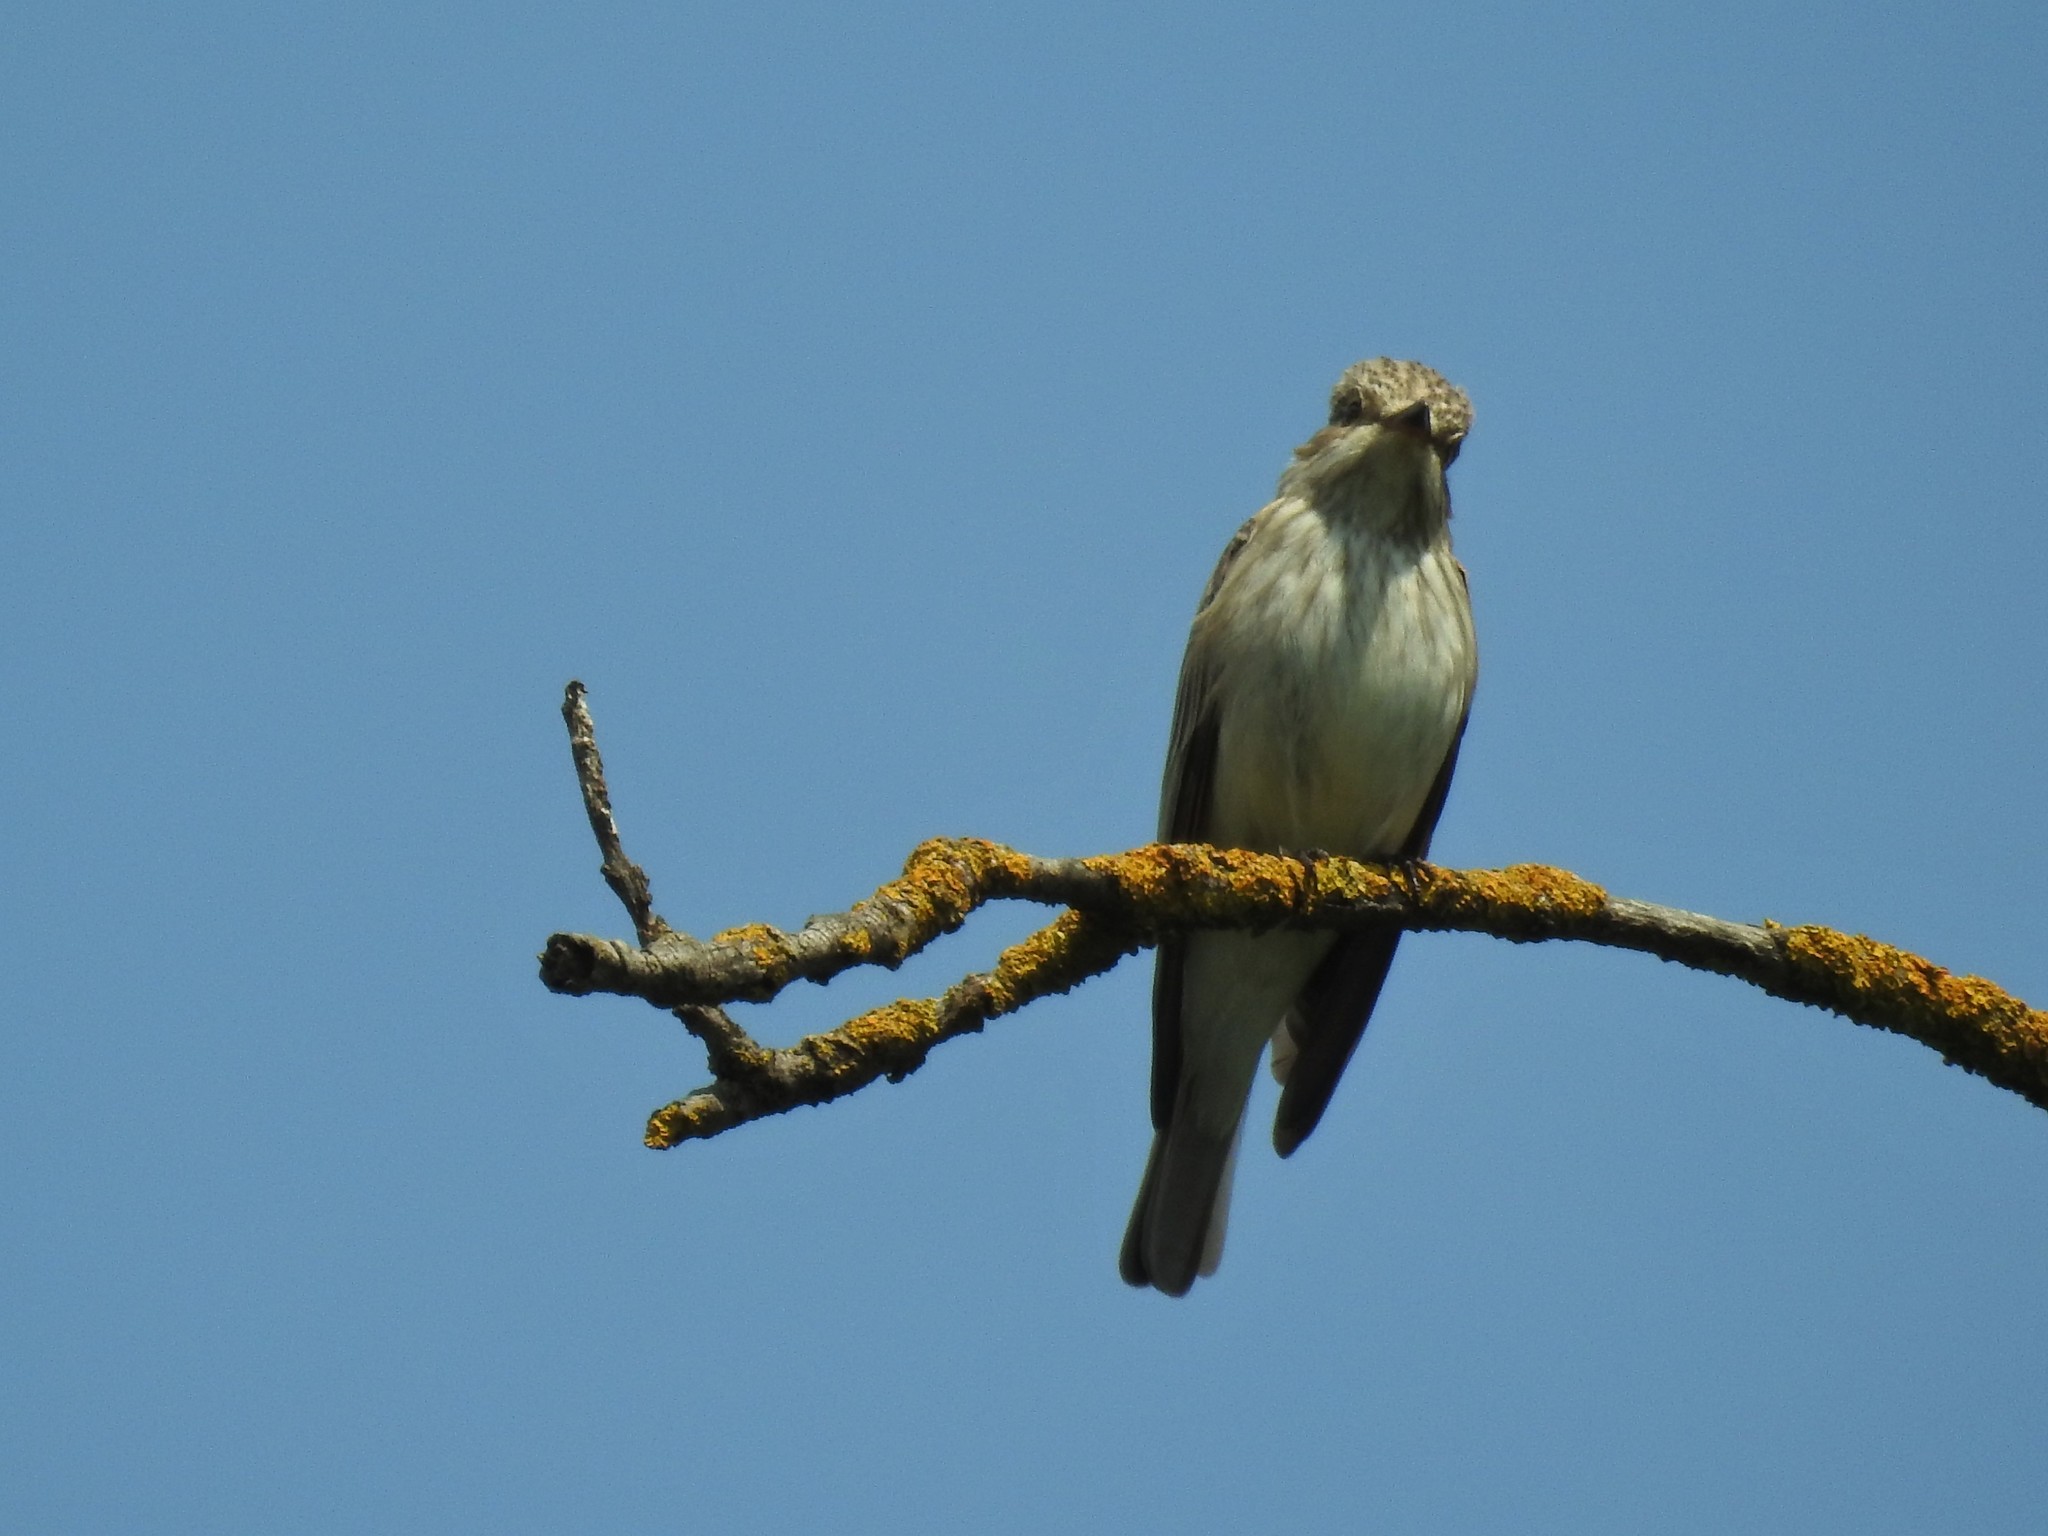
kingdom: Animalia
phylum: Chordata
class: Aves
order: Passeriformes
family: Muscicapidae
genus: Muscicapa
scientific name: Muscicapa striata
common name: Spotted flycatcher
